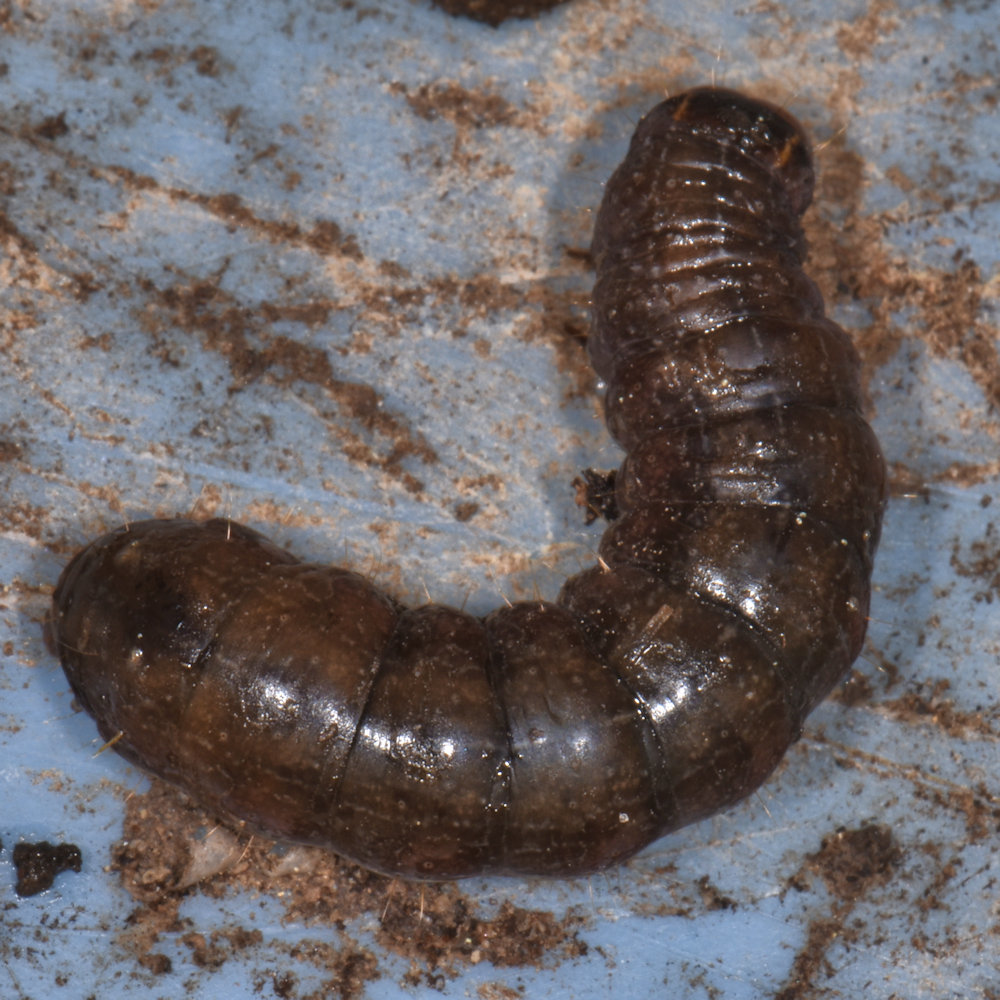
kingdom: Animalia
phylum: Arthropoda
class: Insecta
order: Lepidoptera
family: Noctuidae
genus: Eupsilia
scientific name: Eupsilia vinulenta
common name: Straight-toothed sallow
